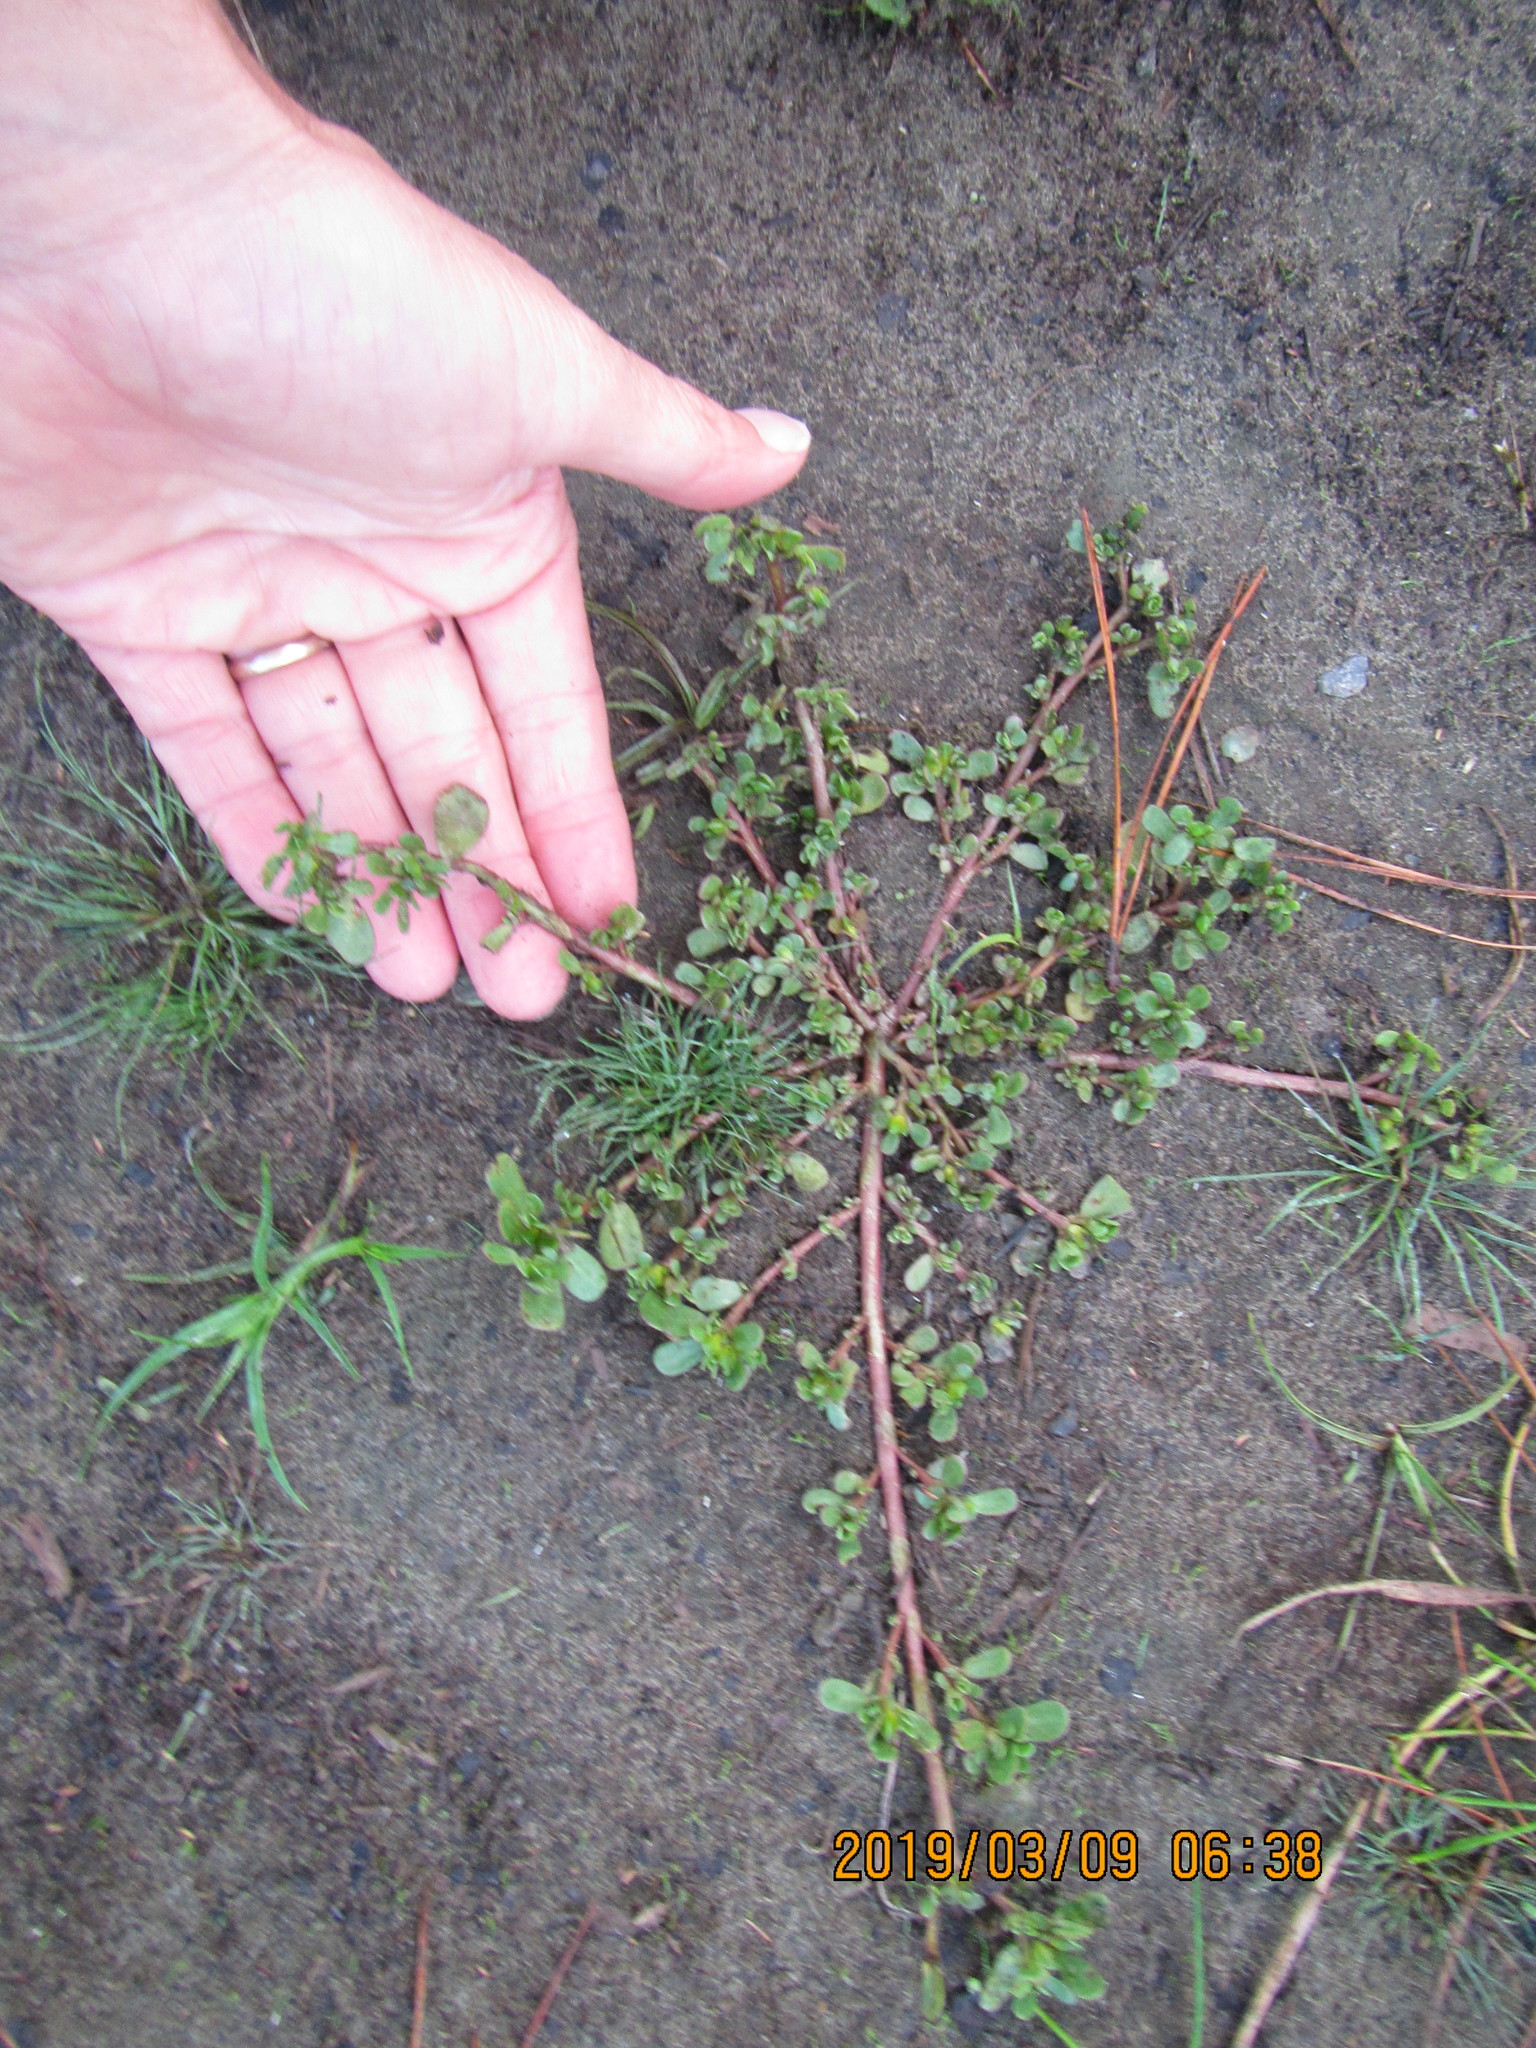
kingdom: Plantae
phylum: Tracheophyta
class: Magnoliopsida
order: Caryophyllales
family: Portulacaceae
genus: Portulaca
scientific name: Portulaca oleracea
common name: Common purslane
